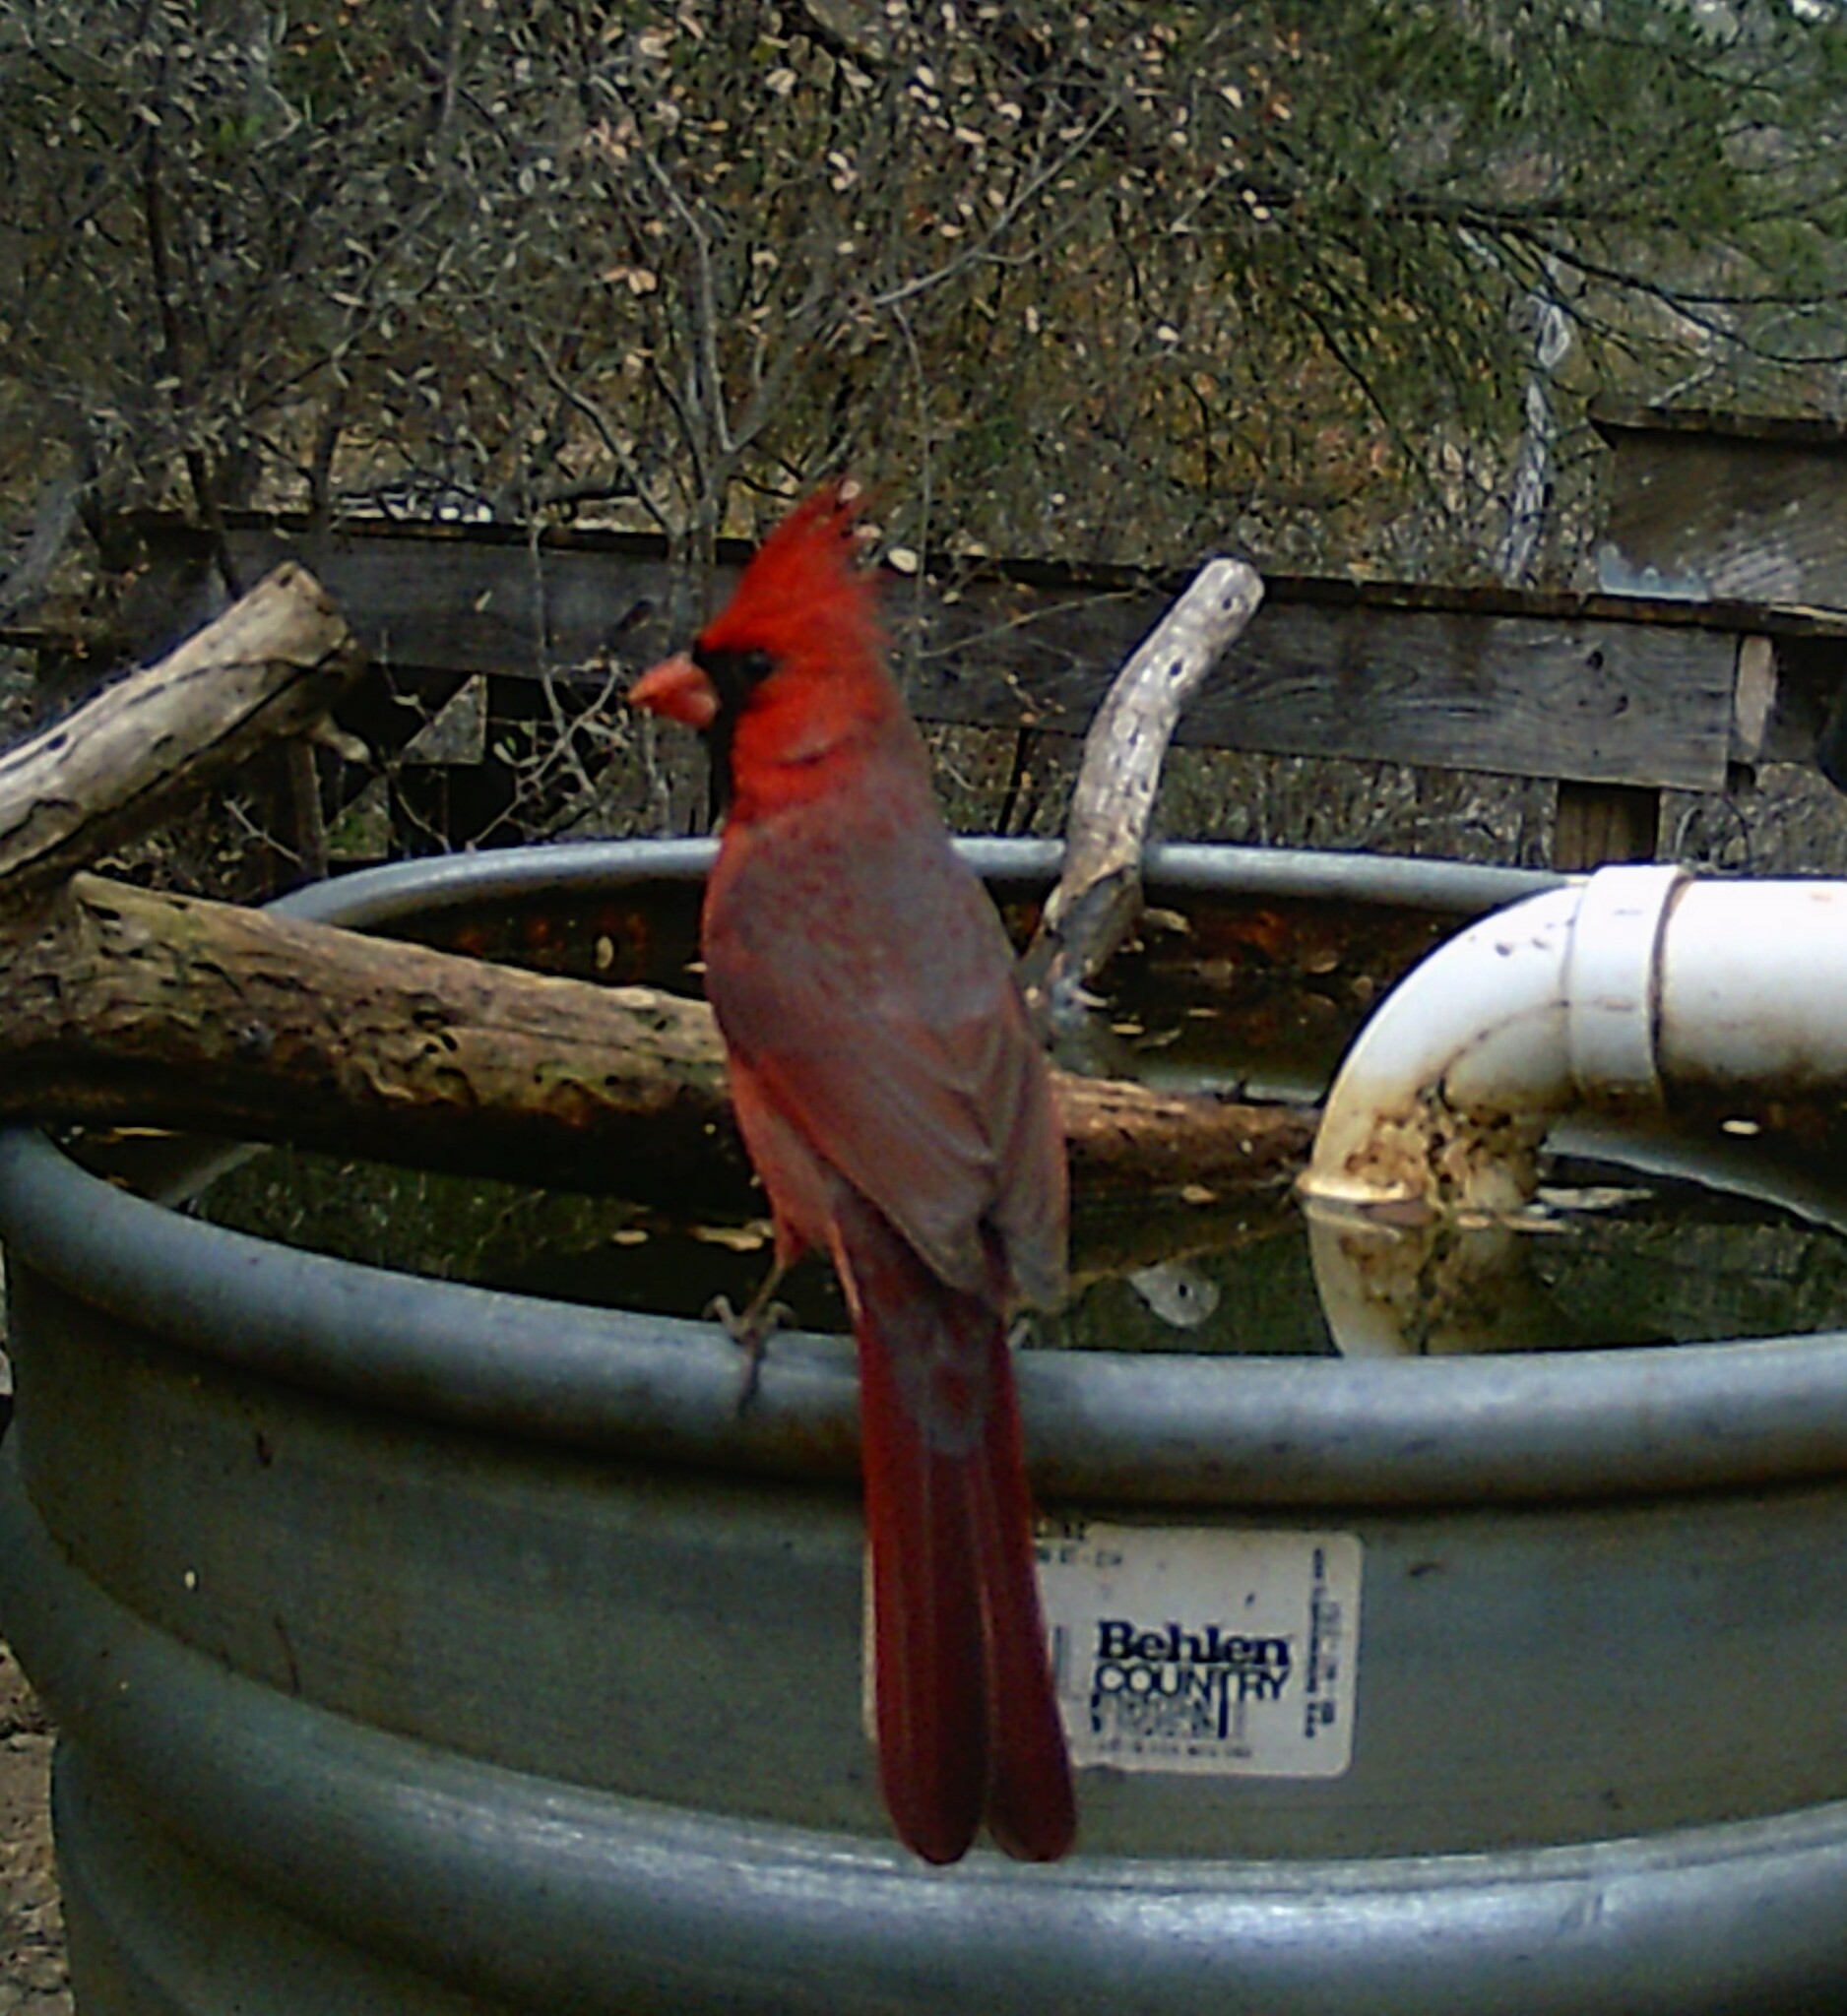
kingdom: Animalia
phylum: Chordata
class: Aves
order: Passeriformes
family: Cardinalidae
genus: Cardinalis
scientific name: Cardinalis cardinalis
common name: Northern cardinal
